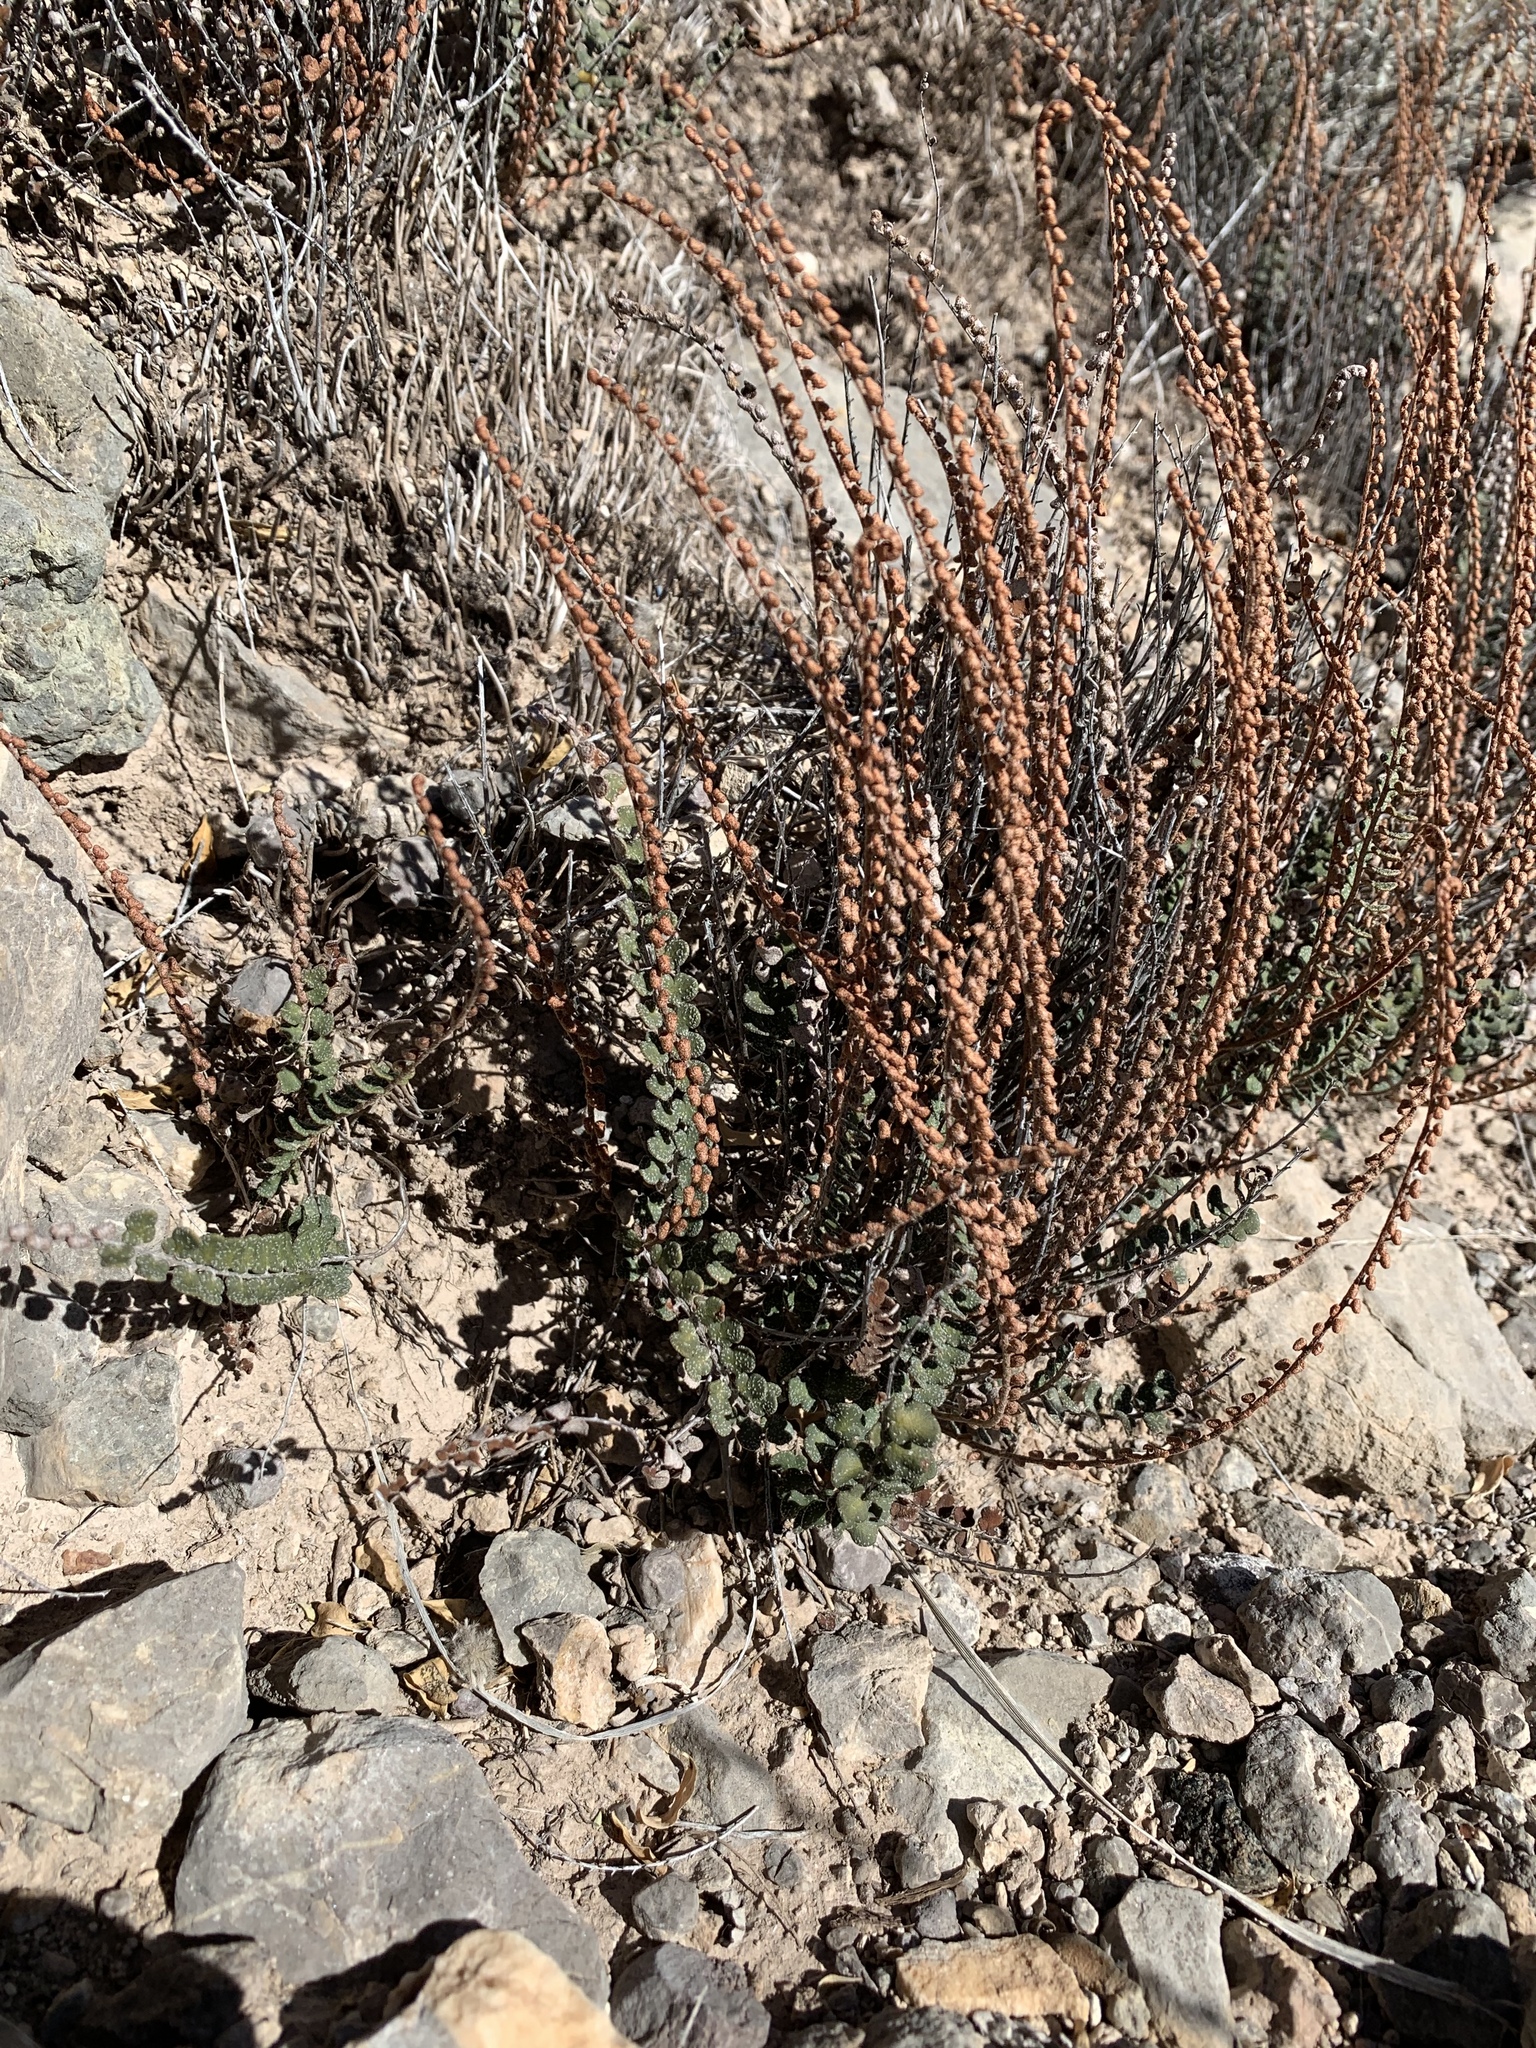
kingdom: Plantae
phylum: Tracheophyta
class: Polypodiopsida
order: Polypodiales
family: Pteridaceae
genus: Astrolepis
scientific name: Astrolepis cochisensis
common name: Scaly cloak fern
